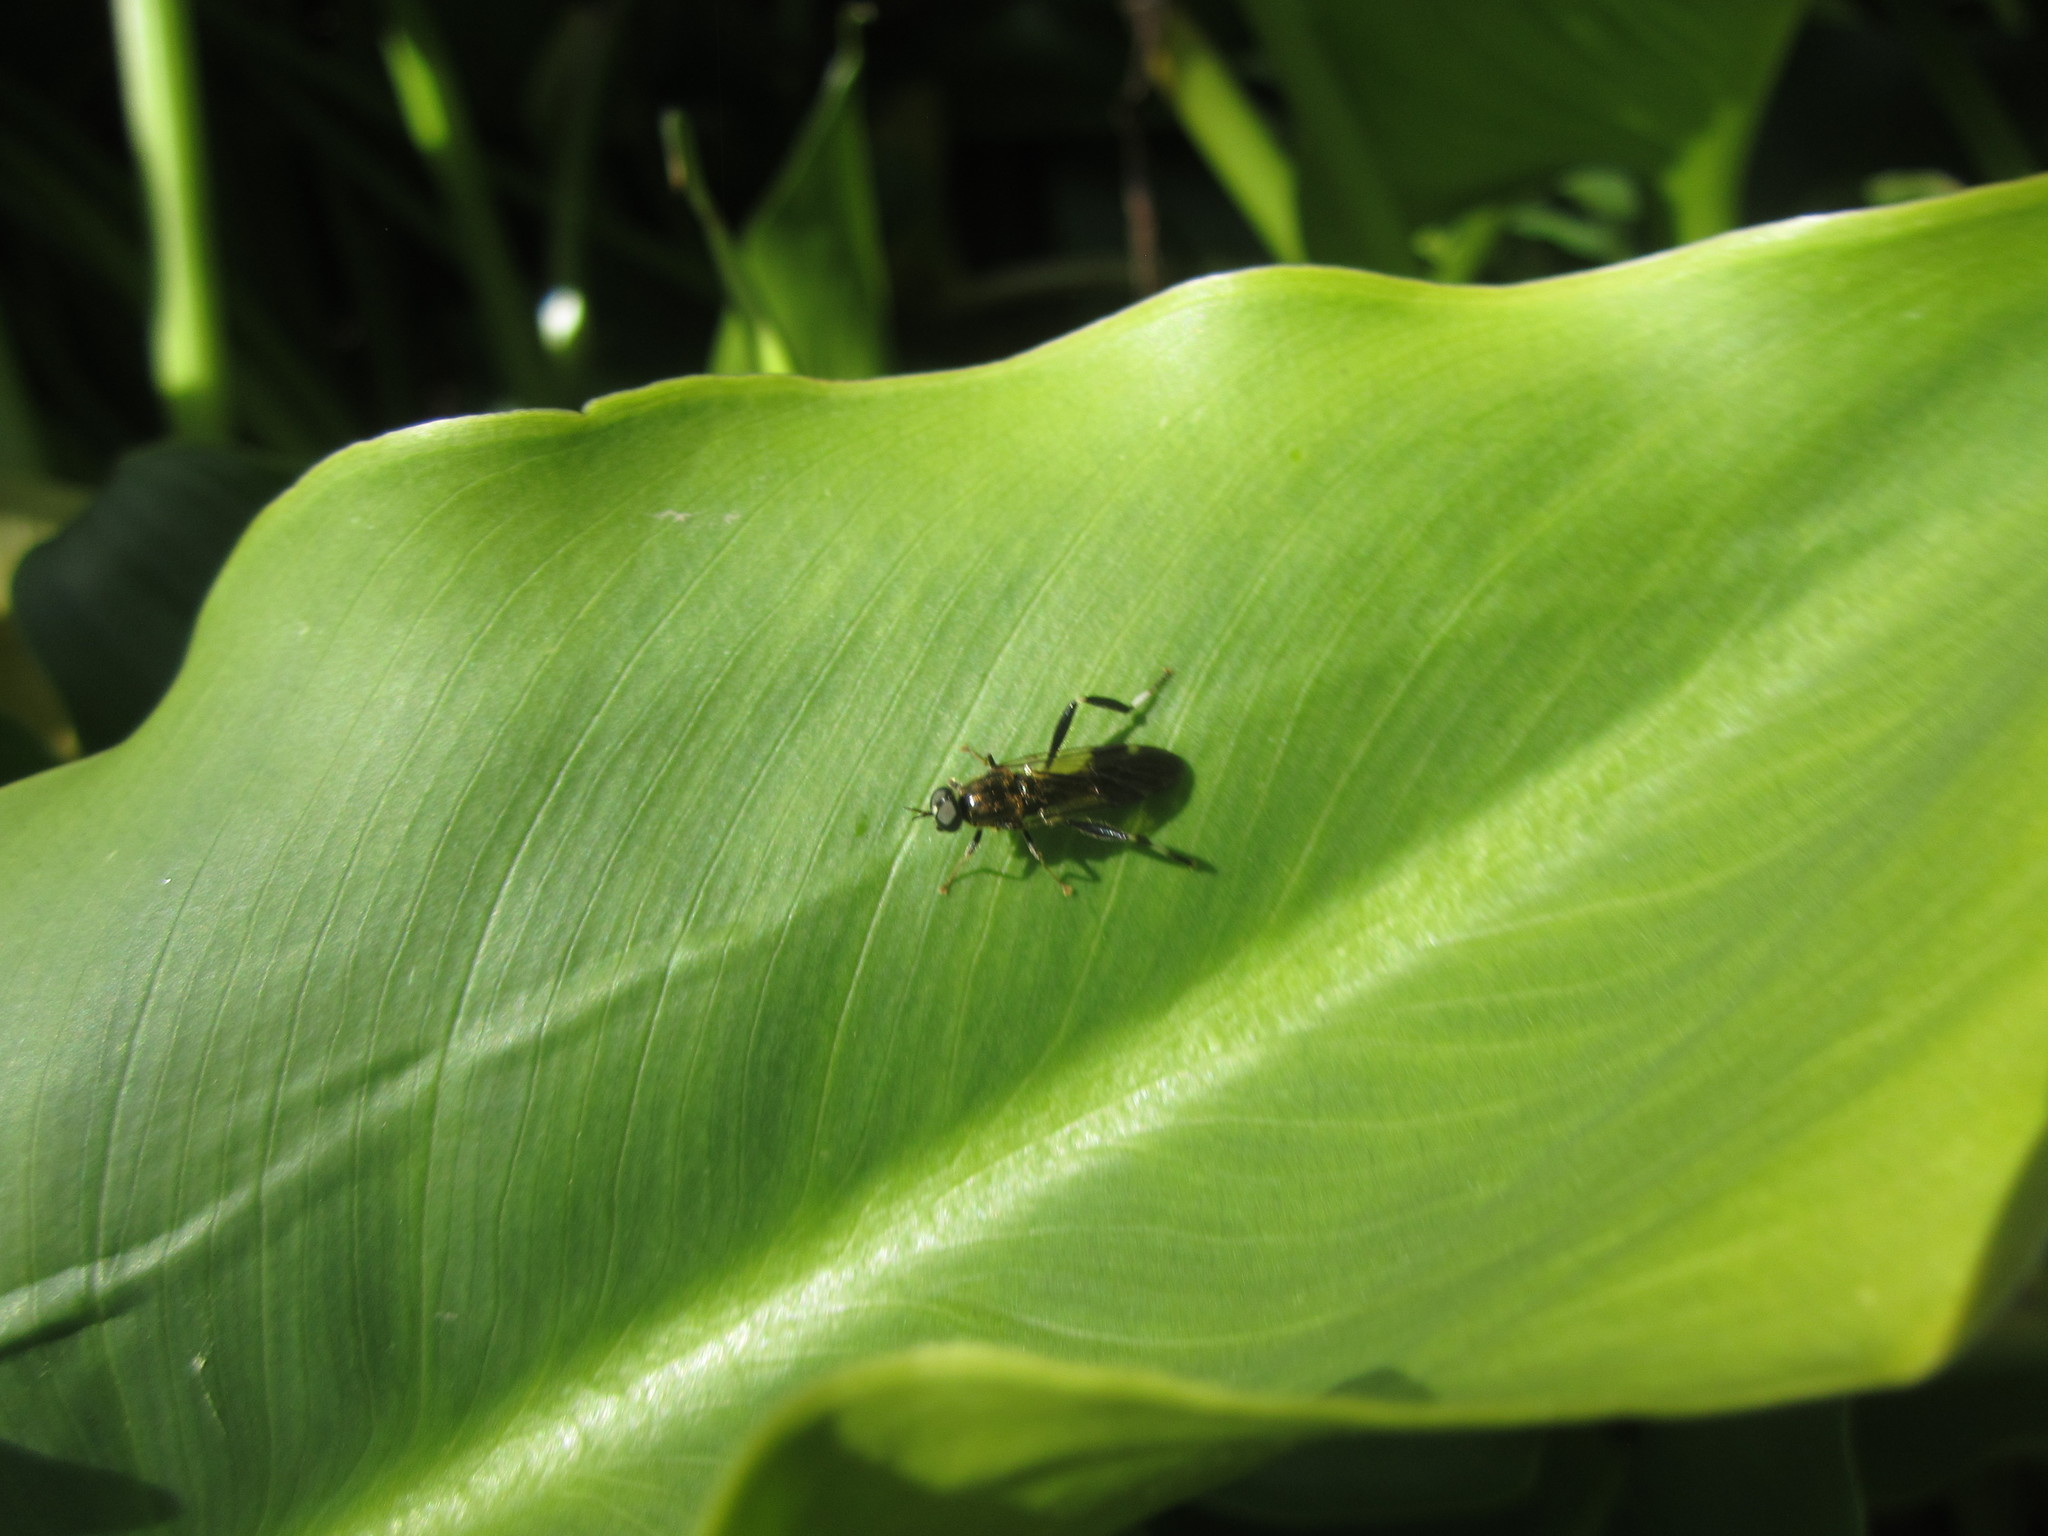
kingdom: Animalia
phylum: Arthropoda
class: Insecta
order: Diptera
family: Stratiomyidae
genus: Exaireta
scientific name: Exaireta spinigera
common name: Blue soldier fly
